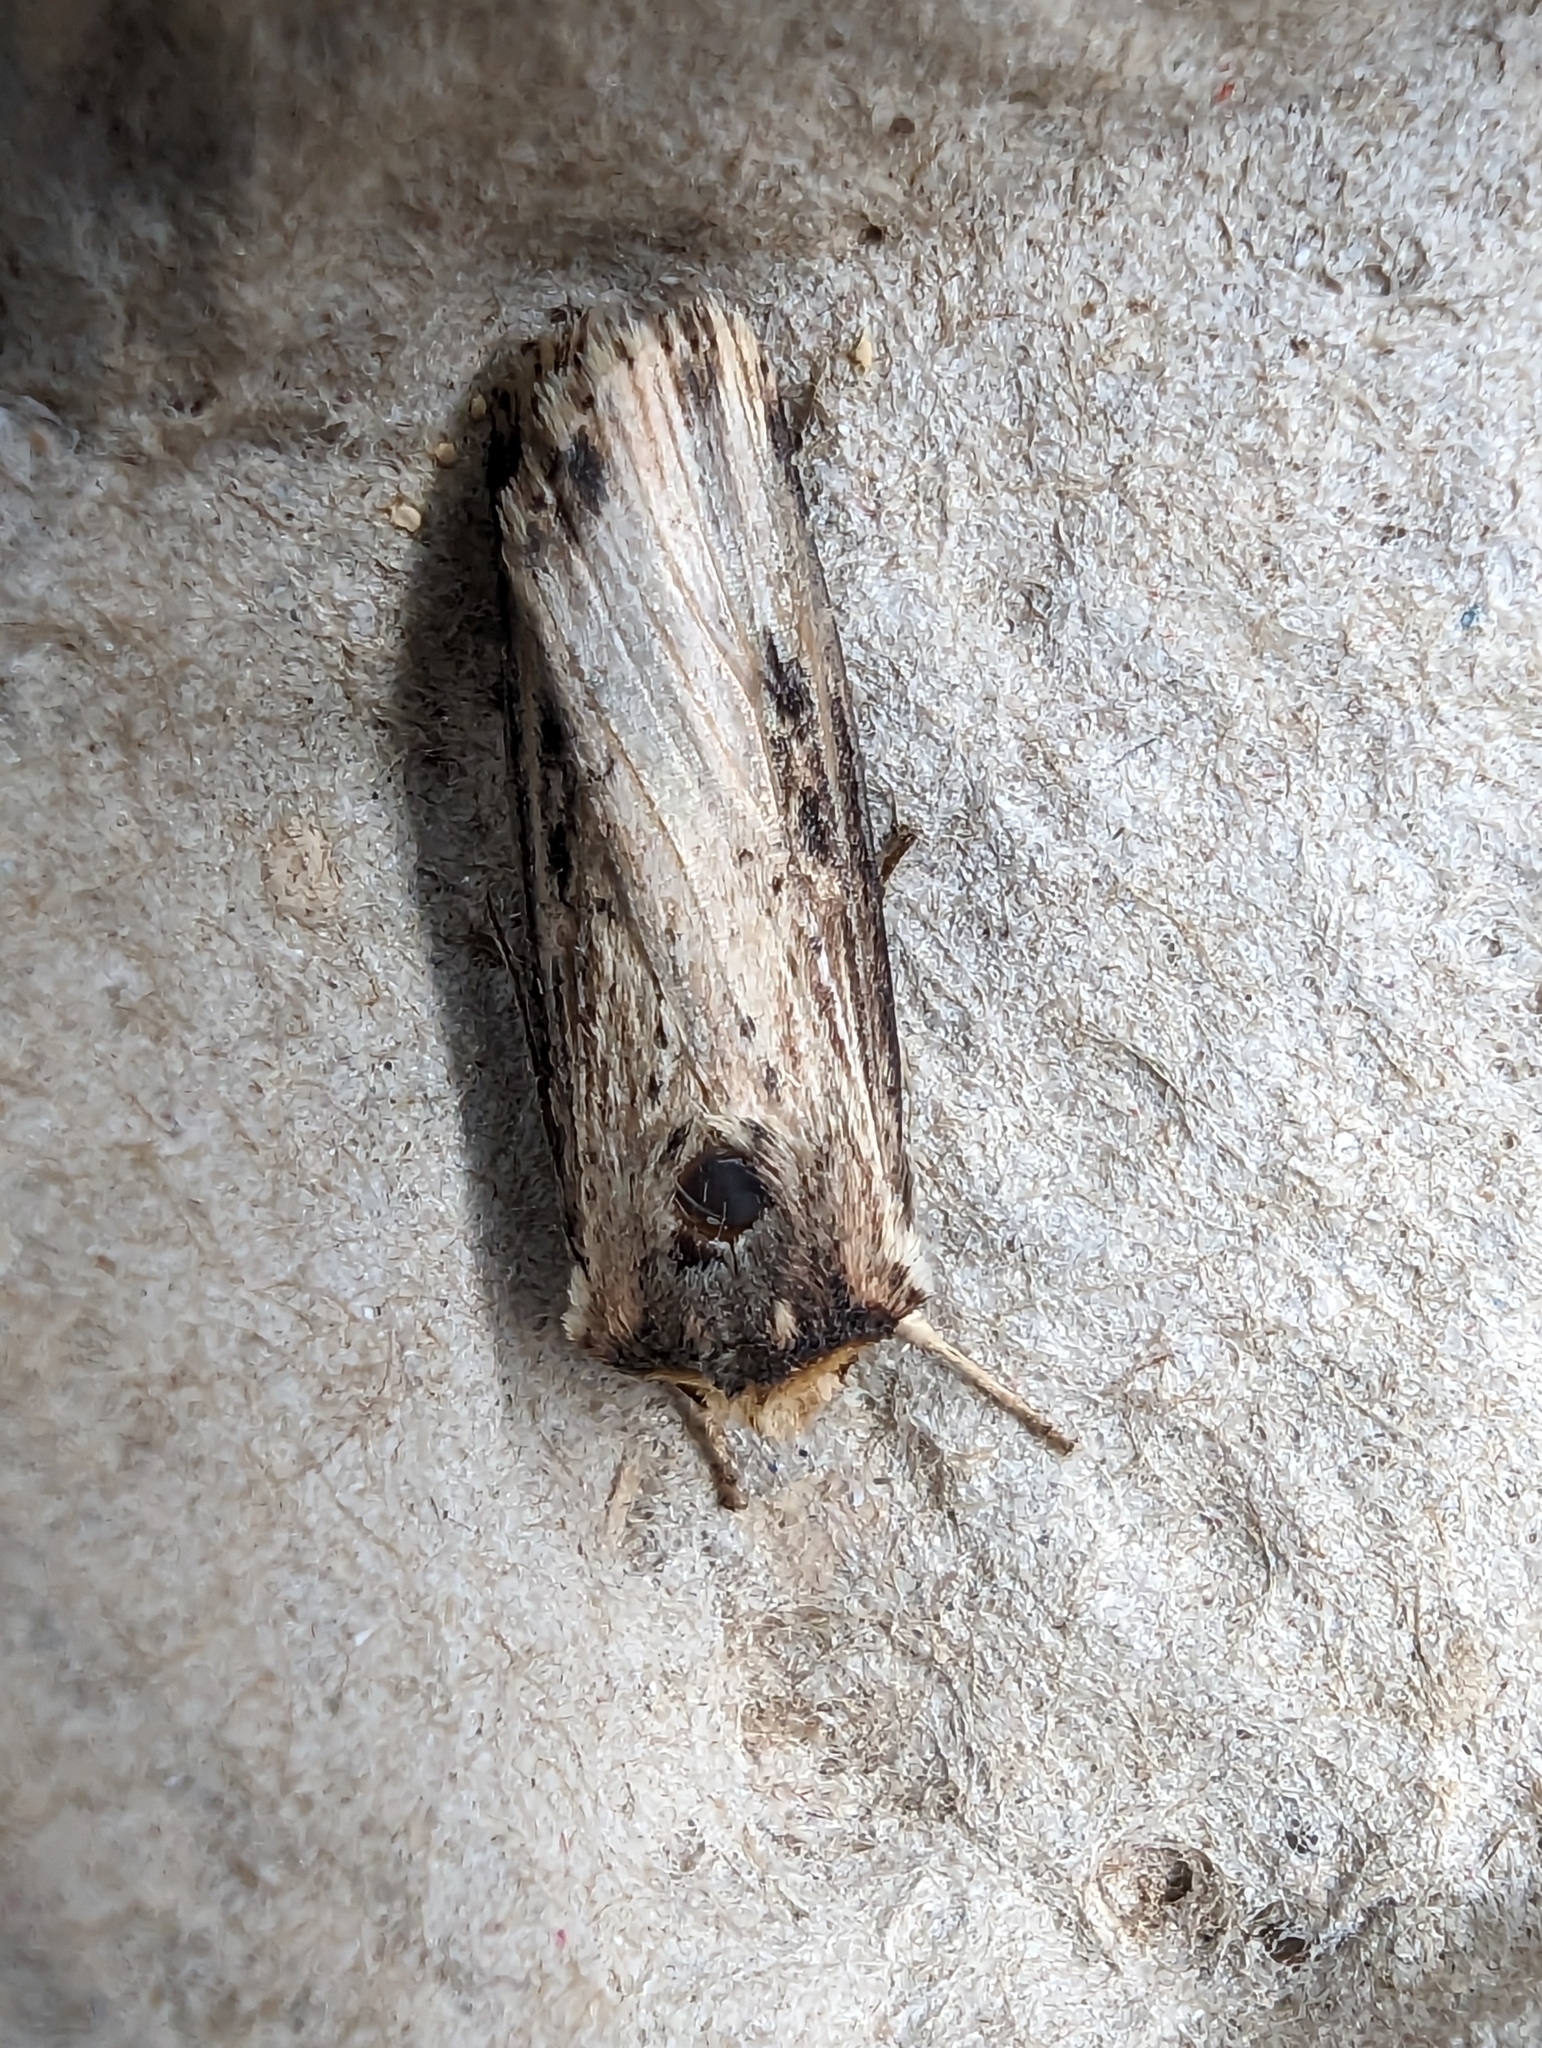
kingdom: Animalia
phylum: Arthropoda
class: Insecta
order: Lepidoptera
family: Noctuidae
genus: Axylia
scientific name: Axylia putris
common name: Flame
